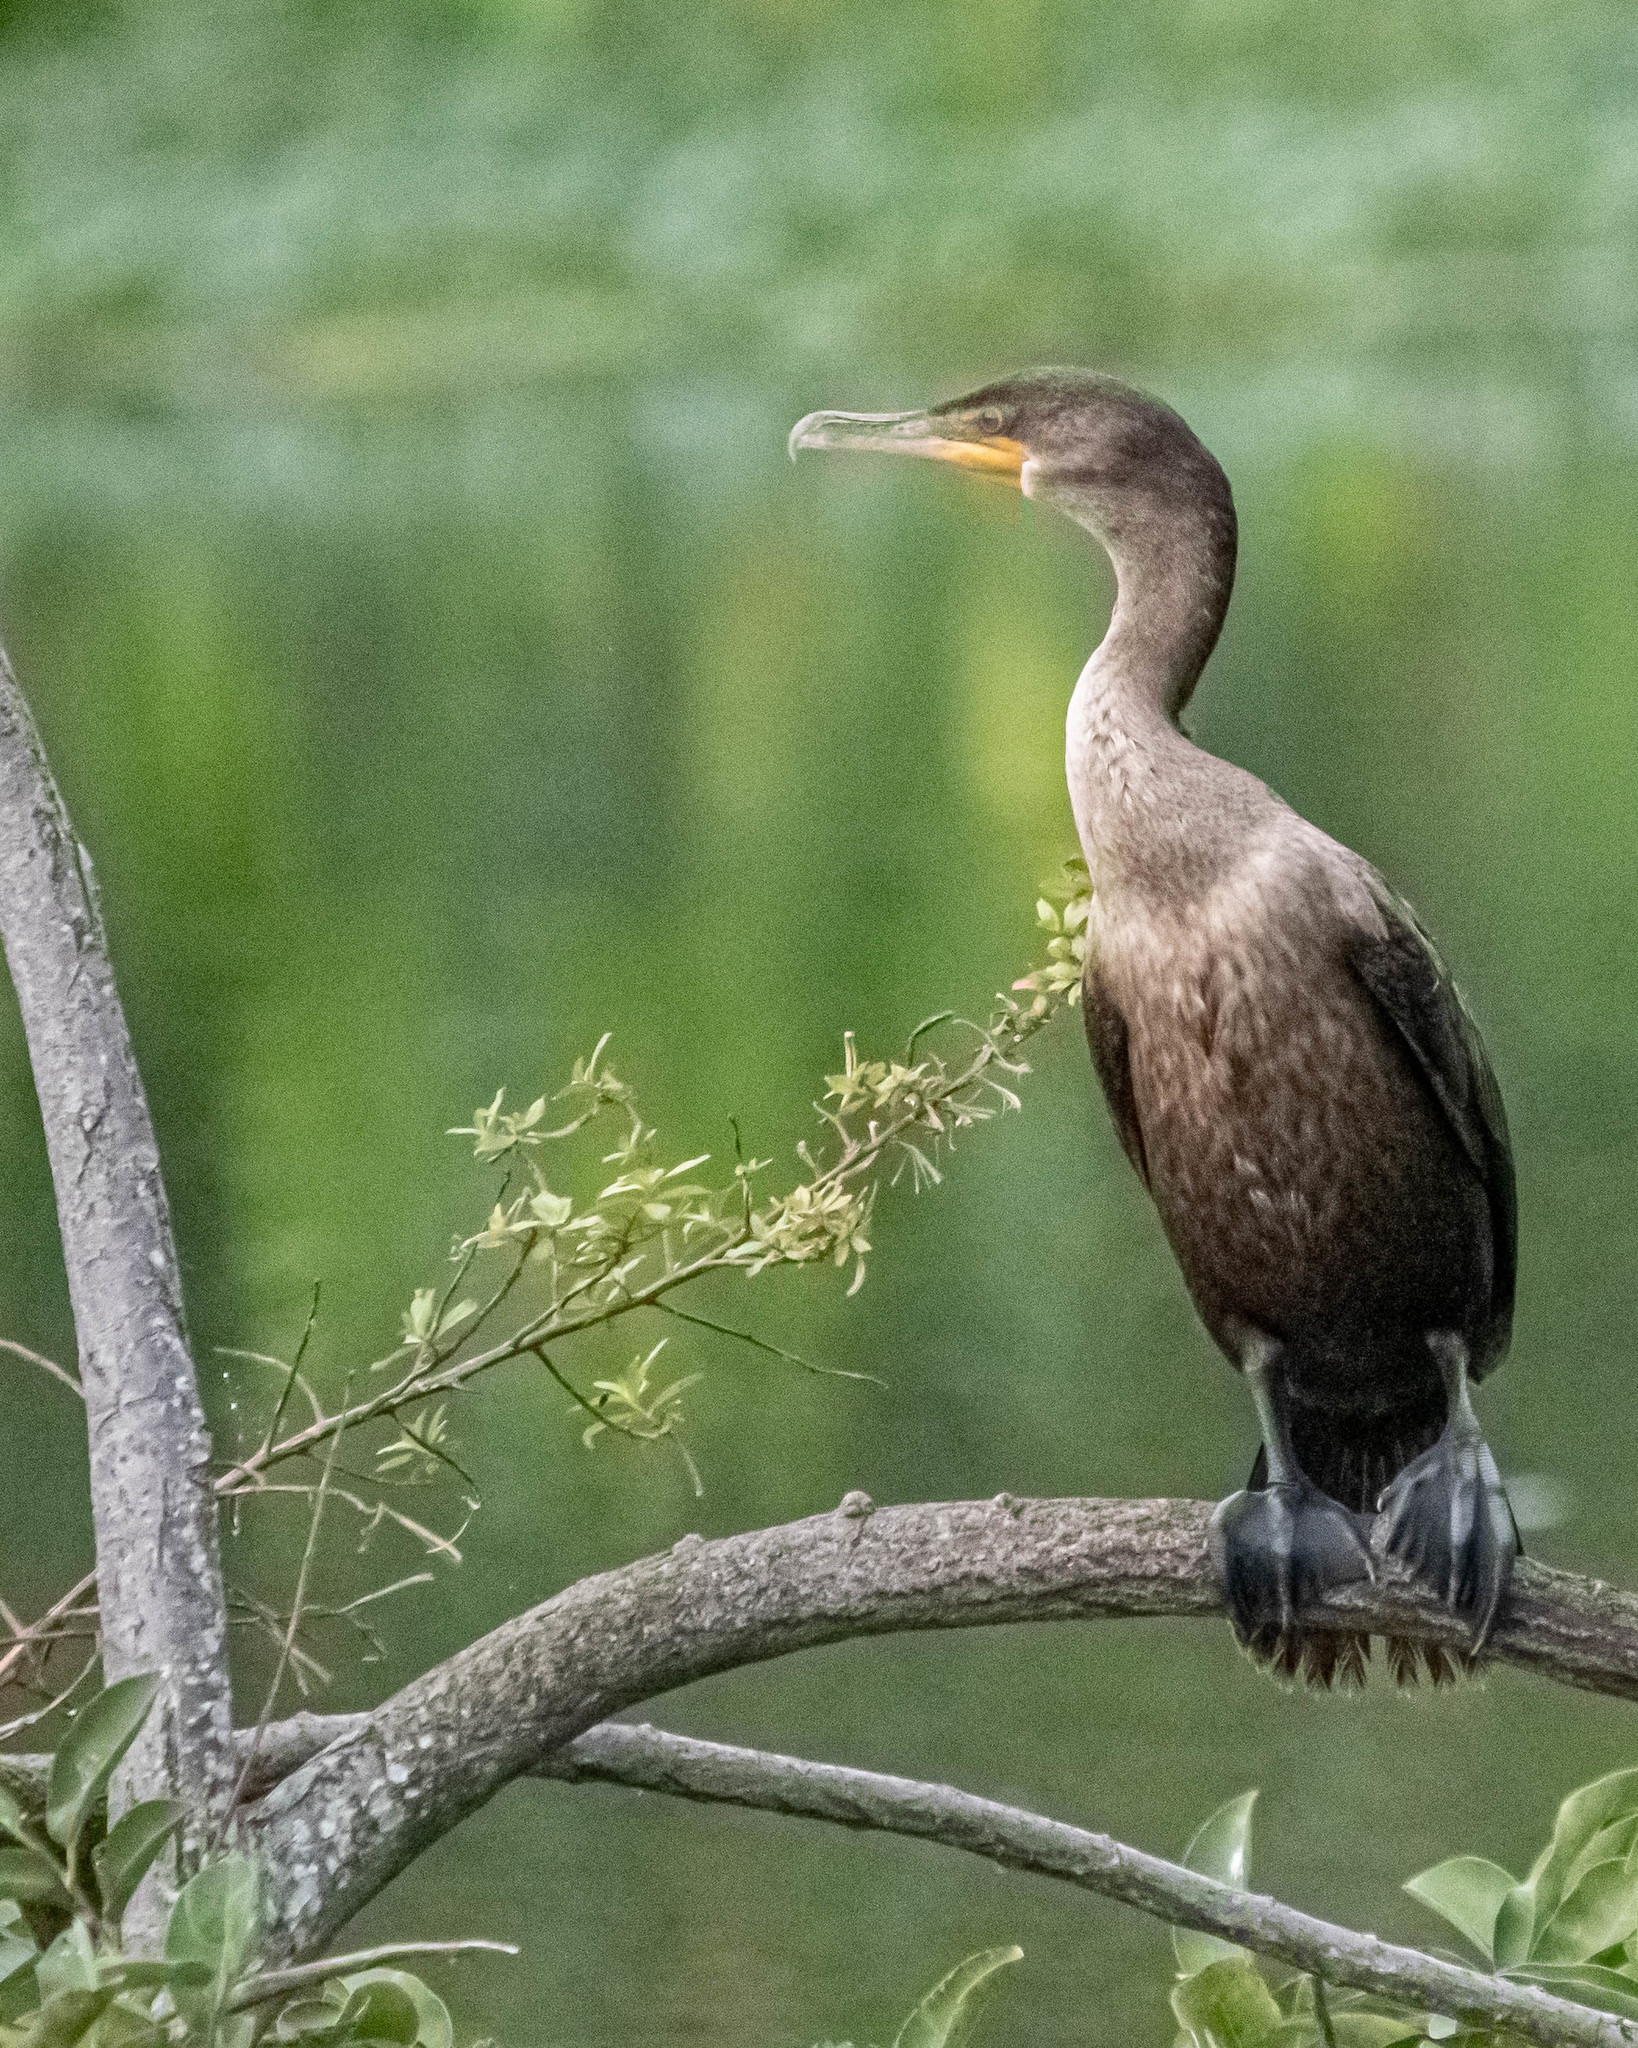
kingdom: Animalia
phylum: Chordata
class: Aves
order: Suliformes
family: Phalacrocoracidae
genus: Phalacrocorax
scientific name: Phalacrocorax auritus
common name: Double-crested cormorant
